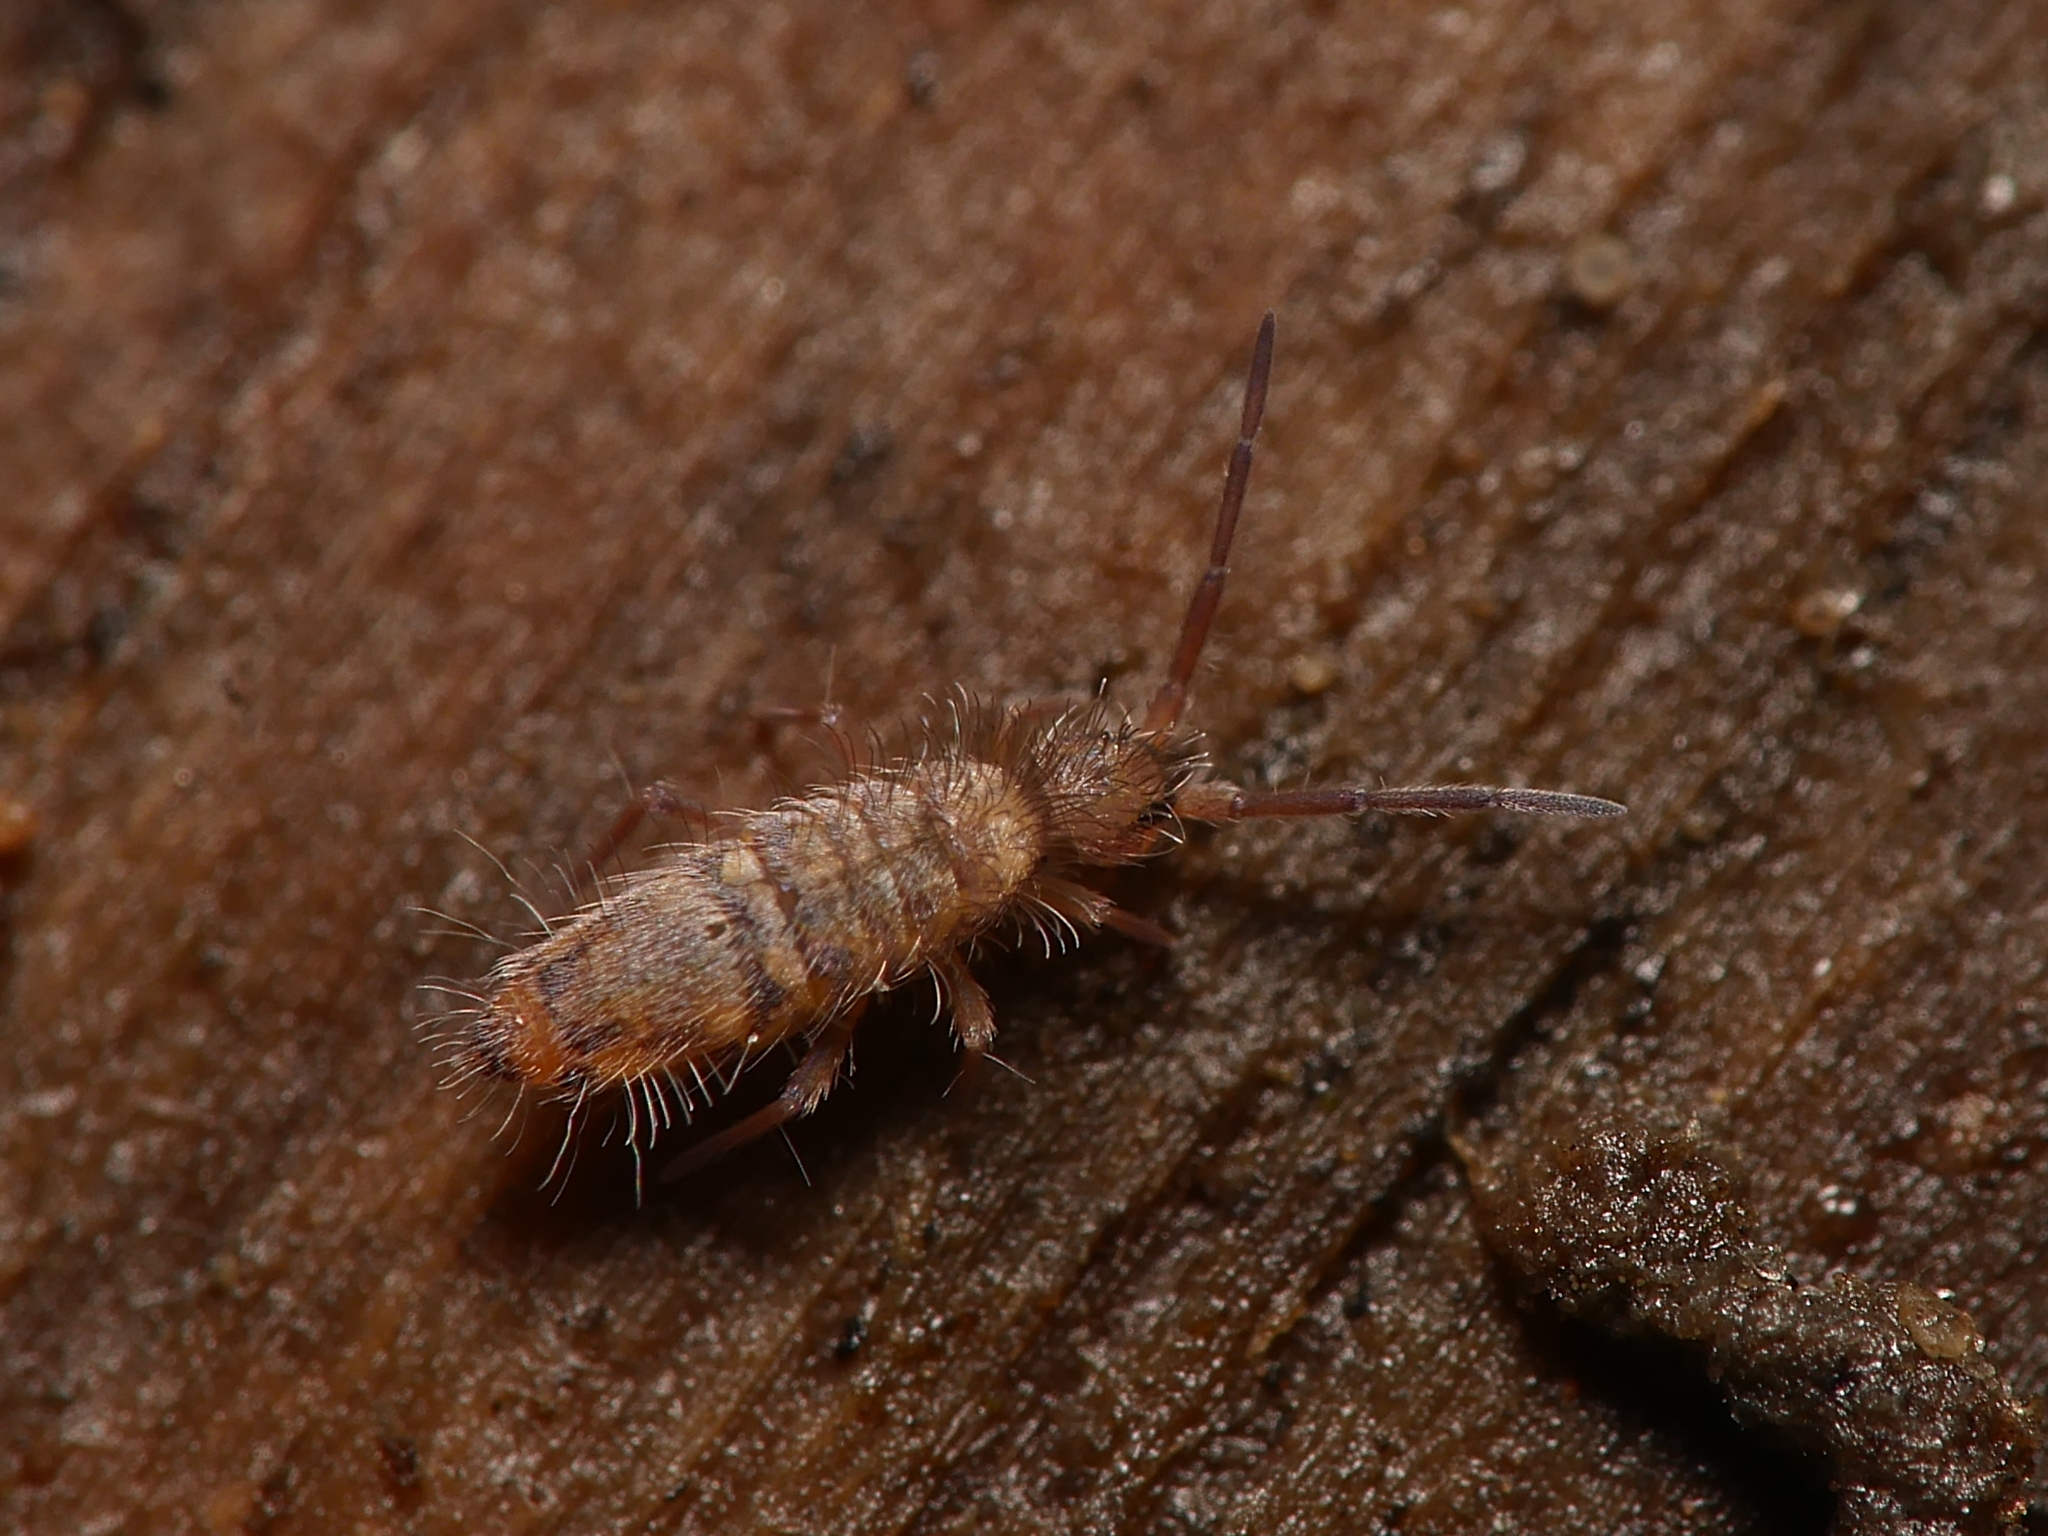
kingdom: Animalia
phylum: Arthropoda
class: Collembola
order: Entomobryomorpha
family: Entomobryidae
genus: Entomobrya
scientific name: Entomobrya multifasciata
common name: Springtail
